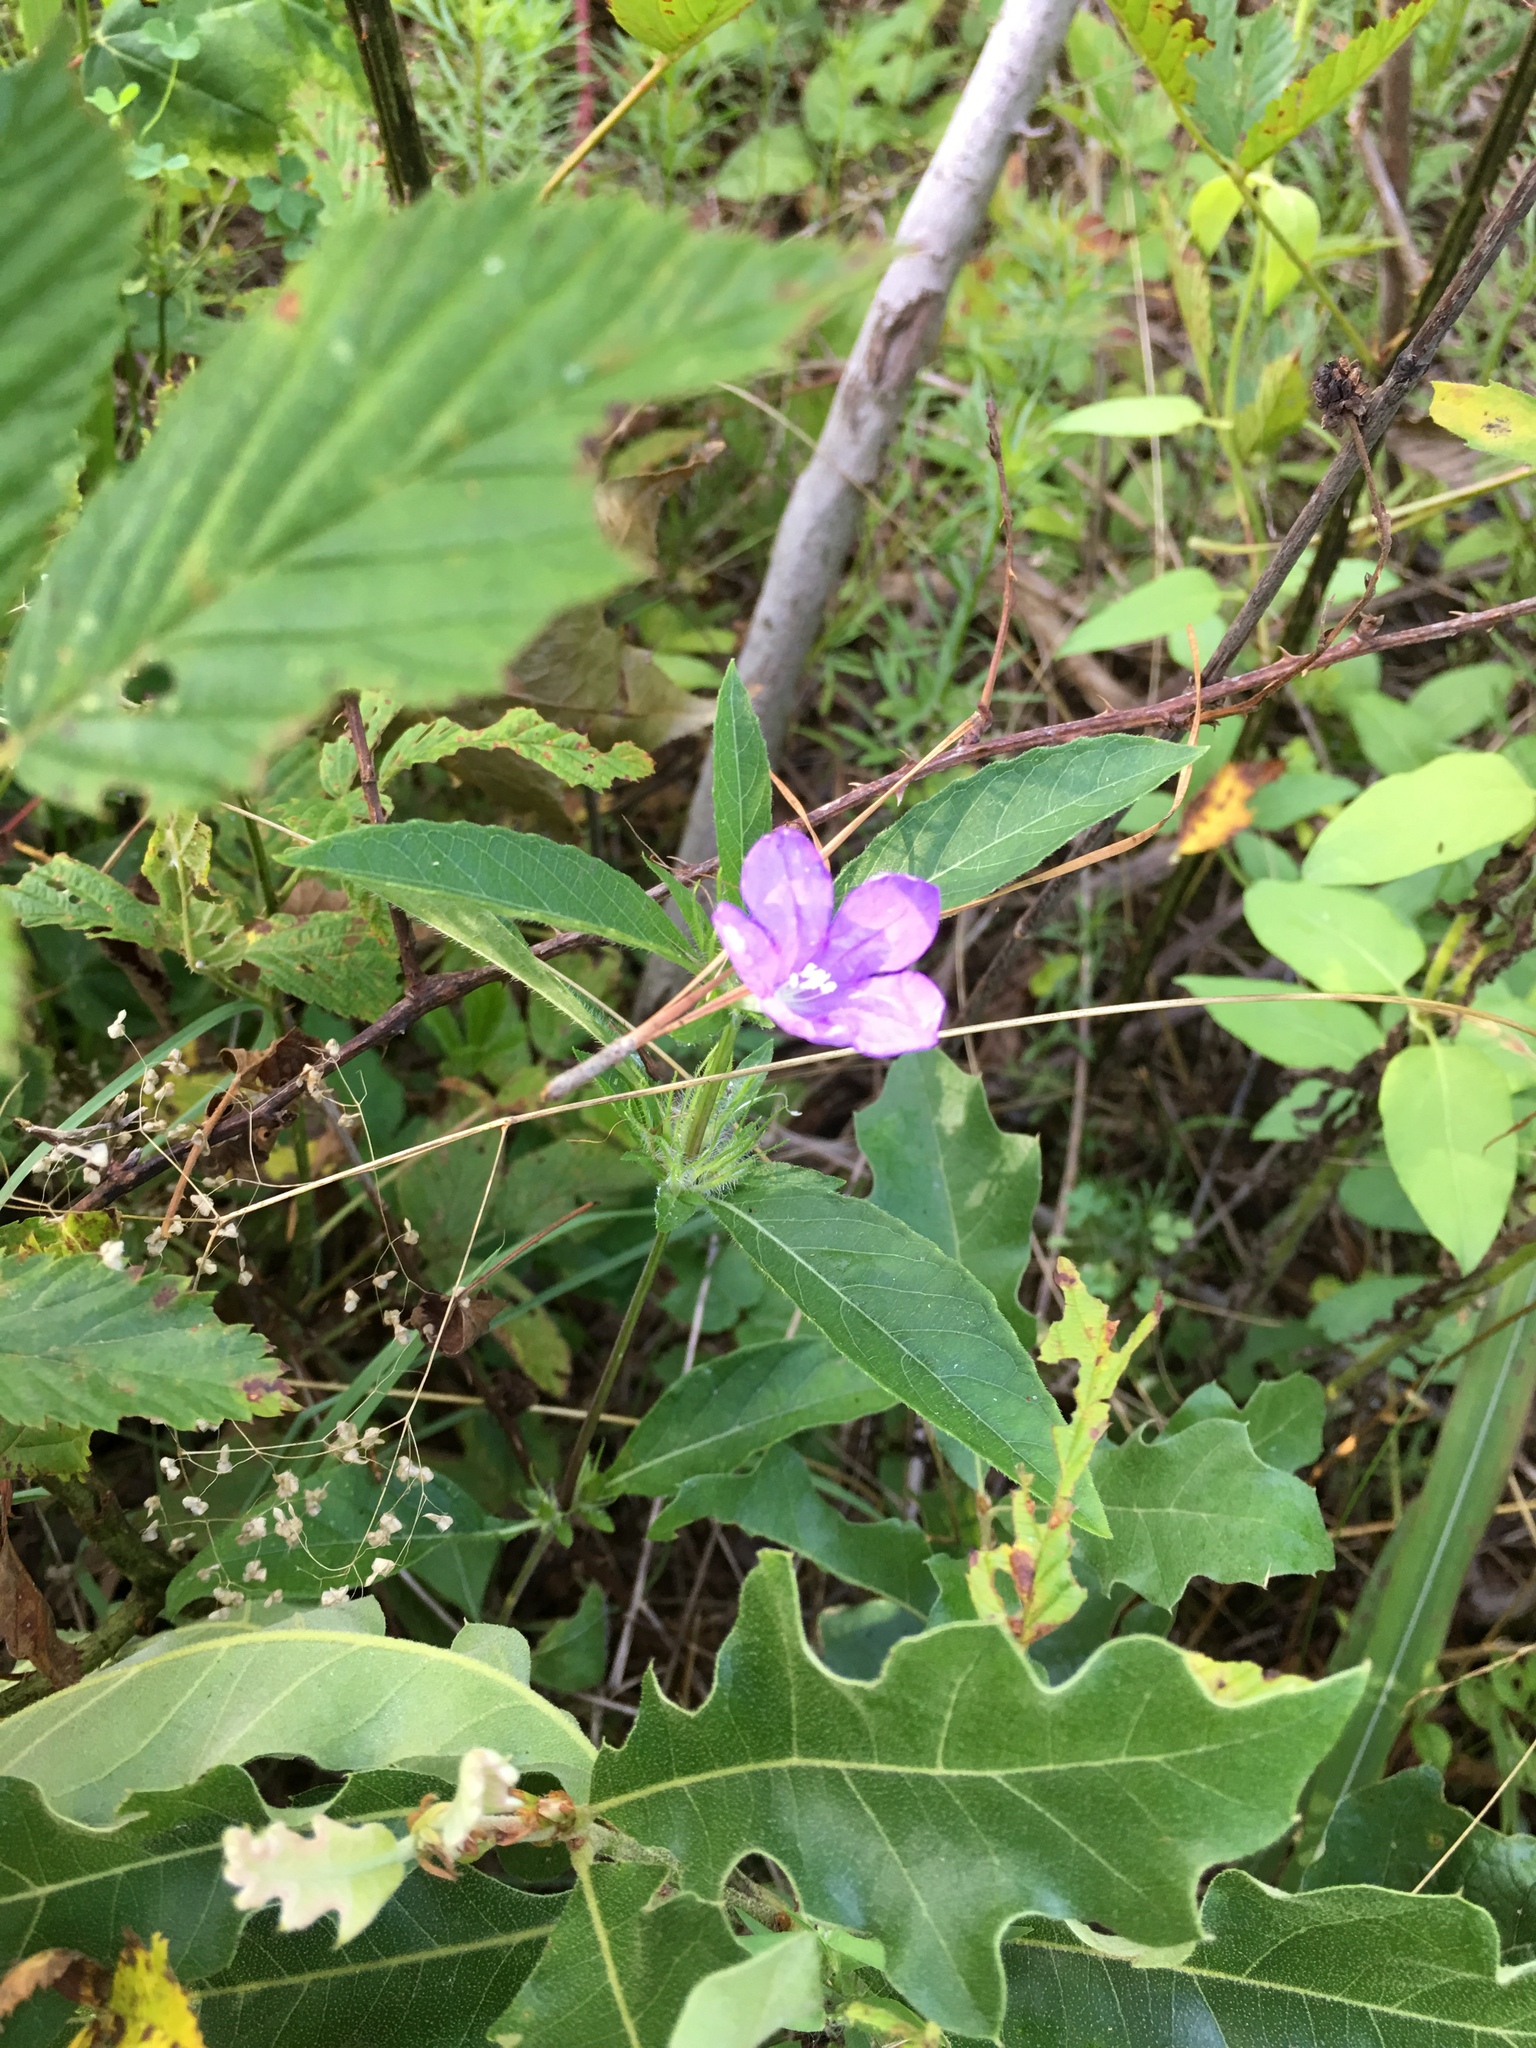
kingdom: Plantae
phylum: Tracheophyta
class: Magnoliopsida
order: Lamiales
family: Acanthaceae
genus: Ruellia
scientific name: Ruellia caroliniensis
